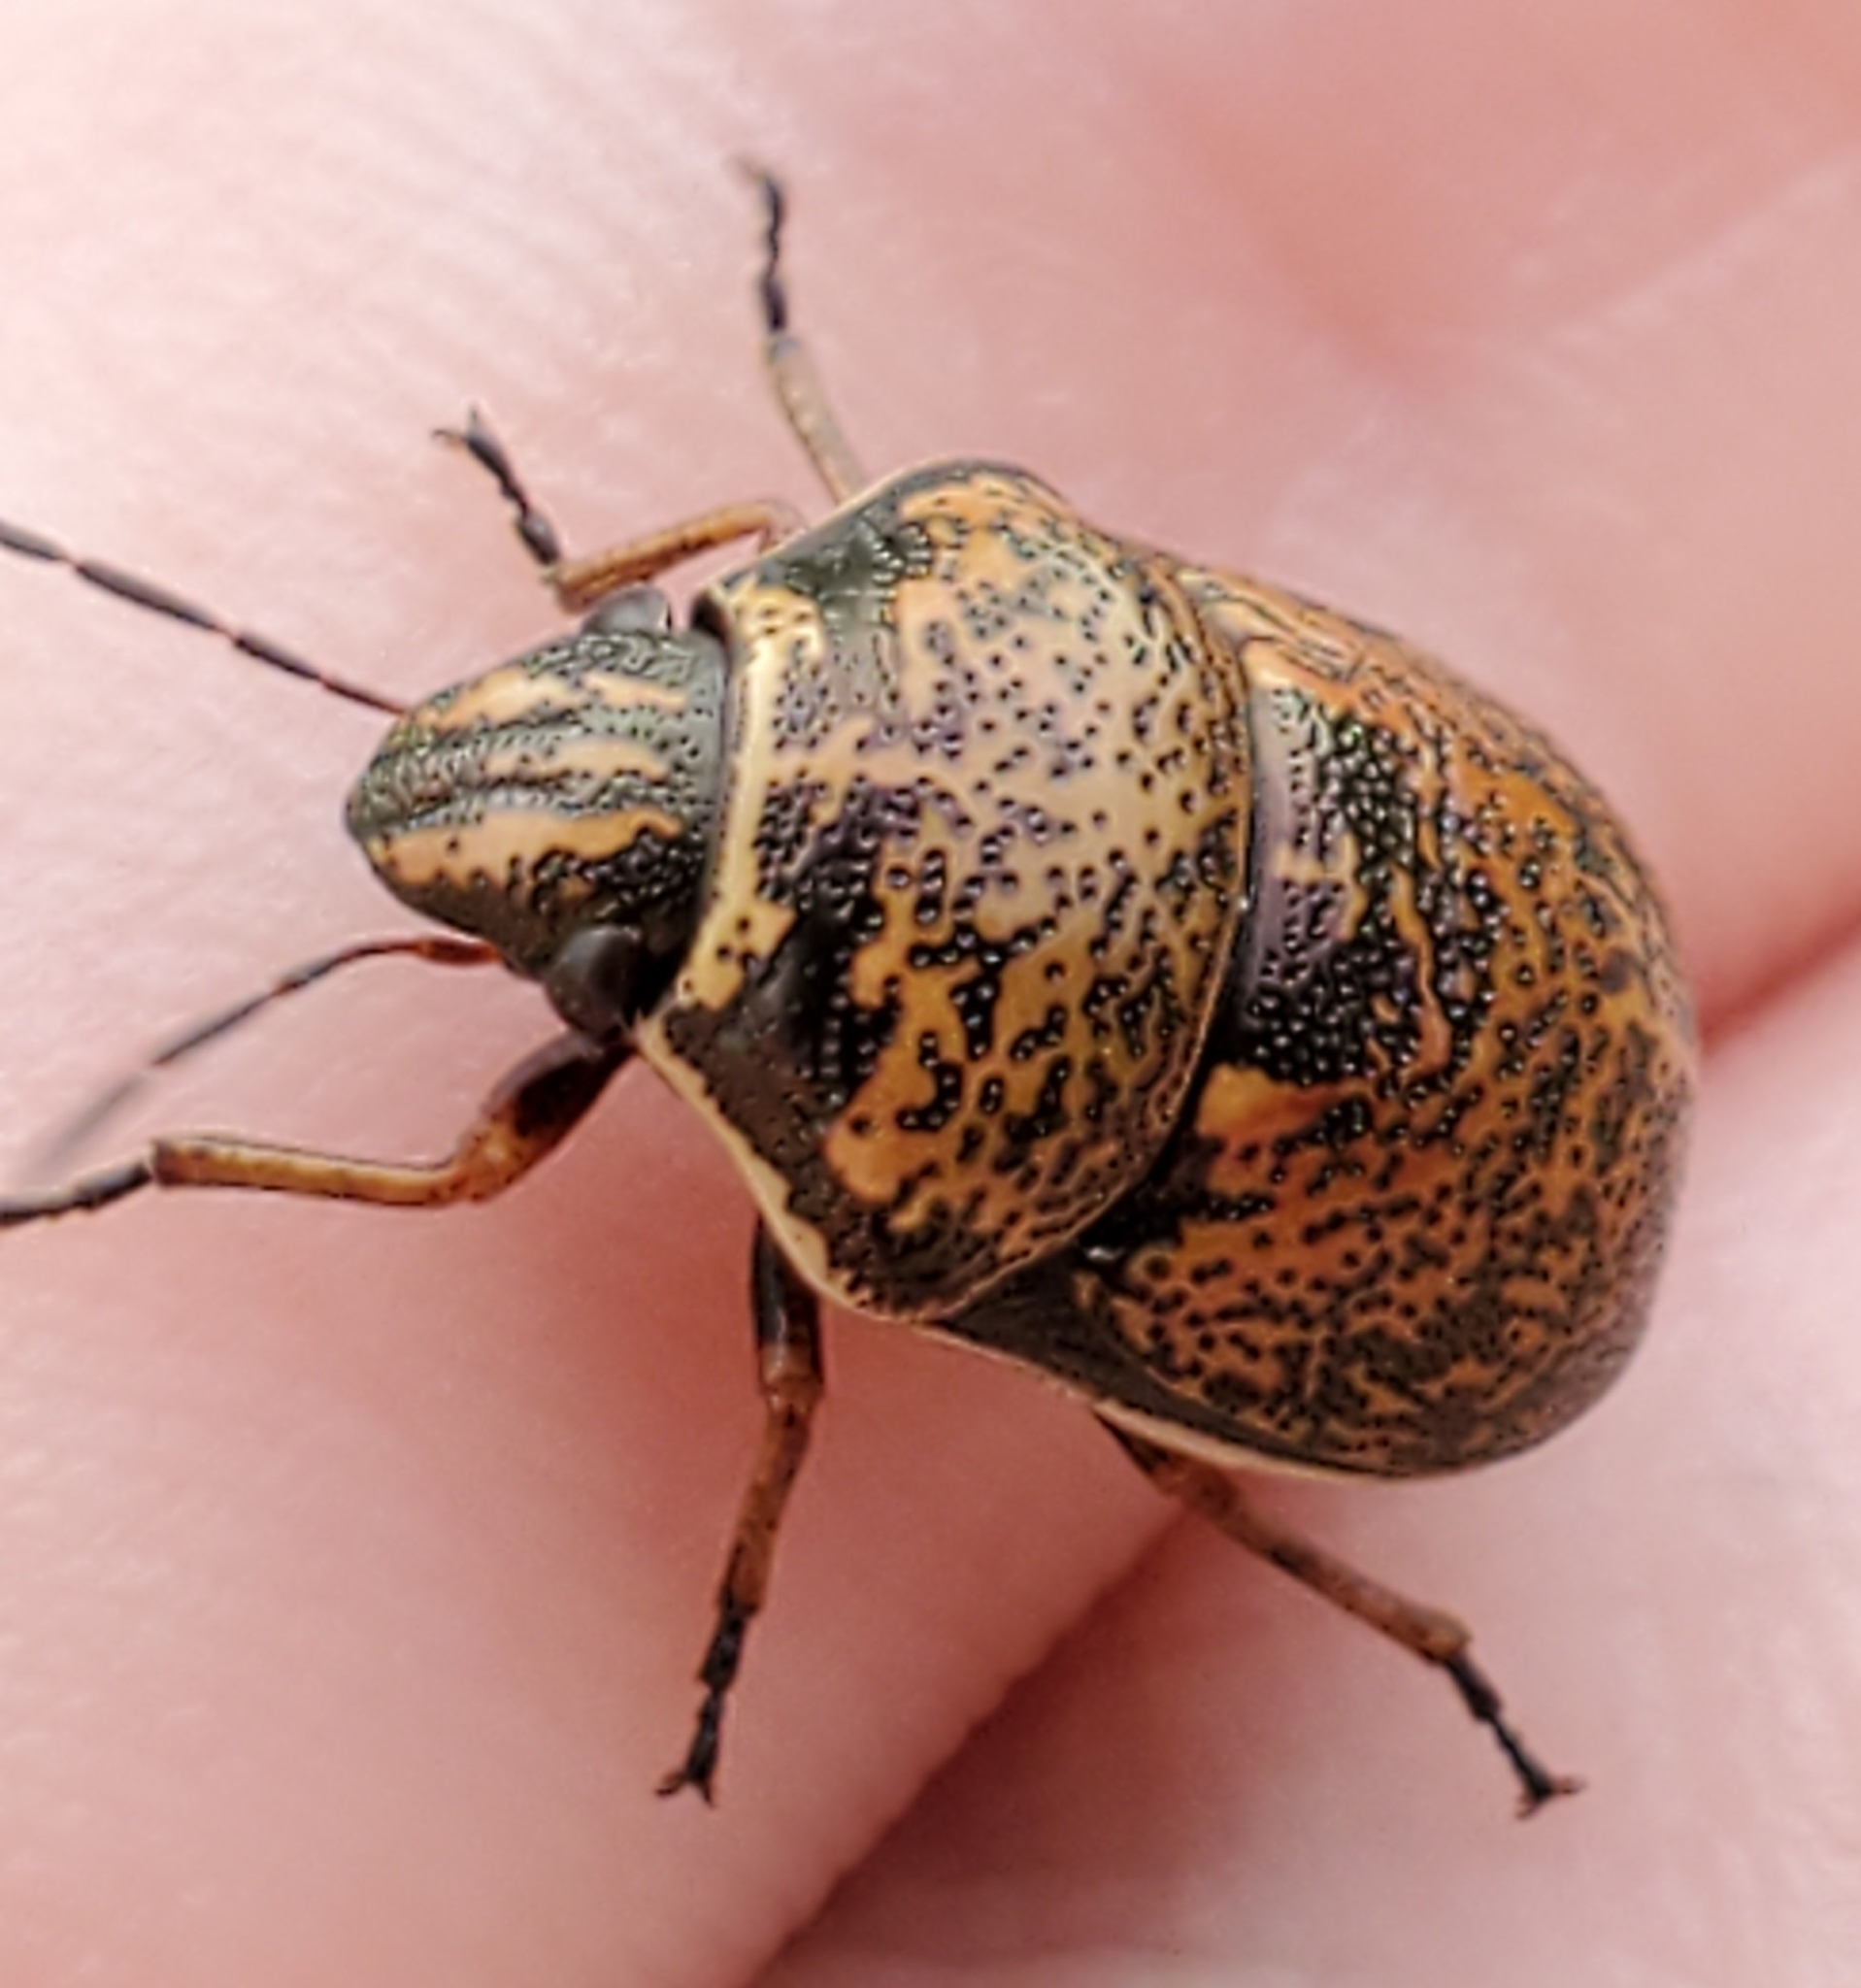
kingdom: Animalia
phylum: Arthropoda
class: Insecta
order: Hemiptera
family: Scutelleridae
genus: Orsilochides
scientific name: Orsilochides guttata
